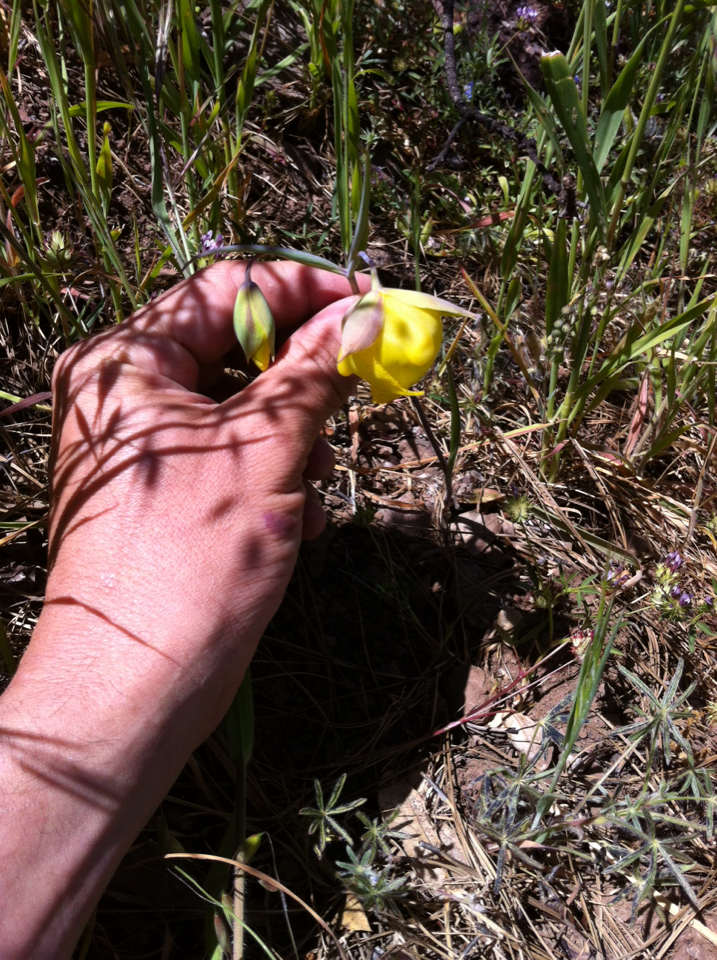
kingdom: Plantae
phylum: Tracheophyta
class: Liliopsida
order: Liliales
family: Liliaceae
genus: Calochortus
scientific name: Calochortus pulchellus
